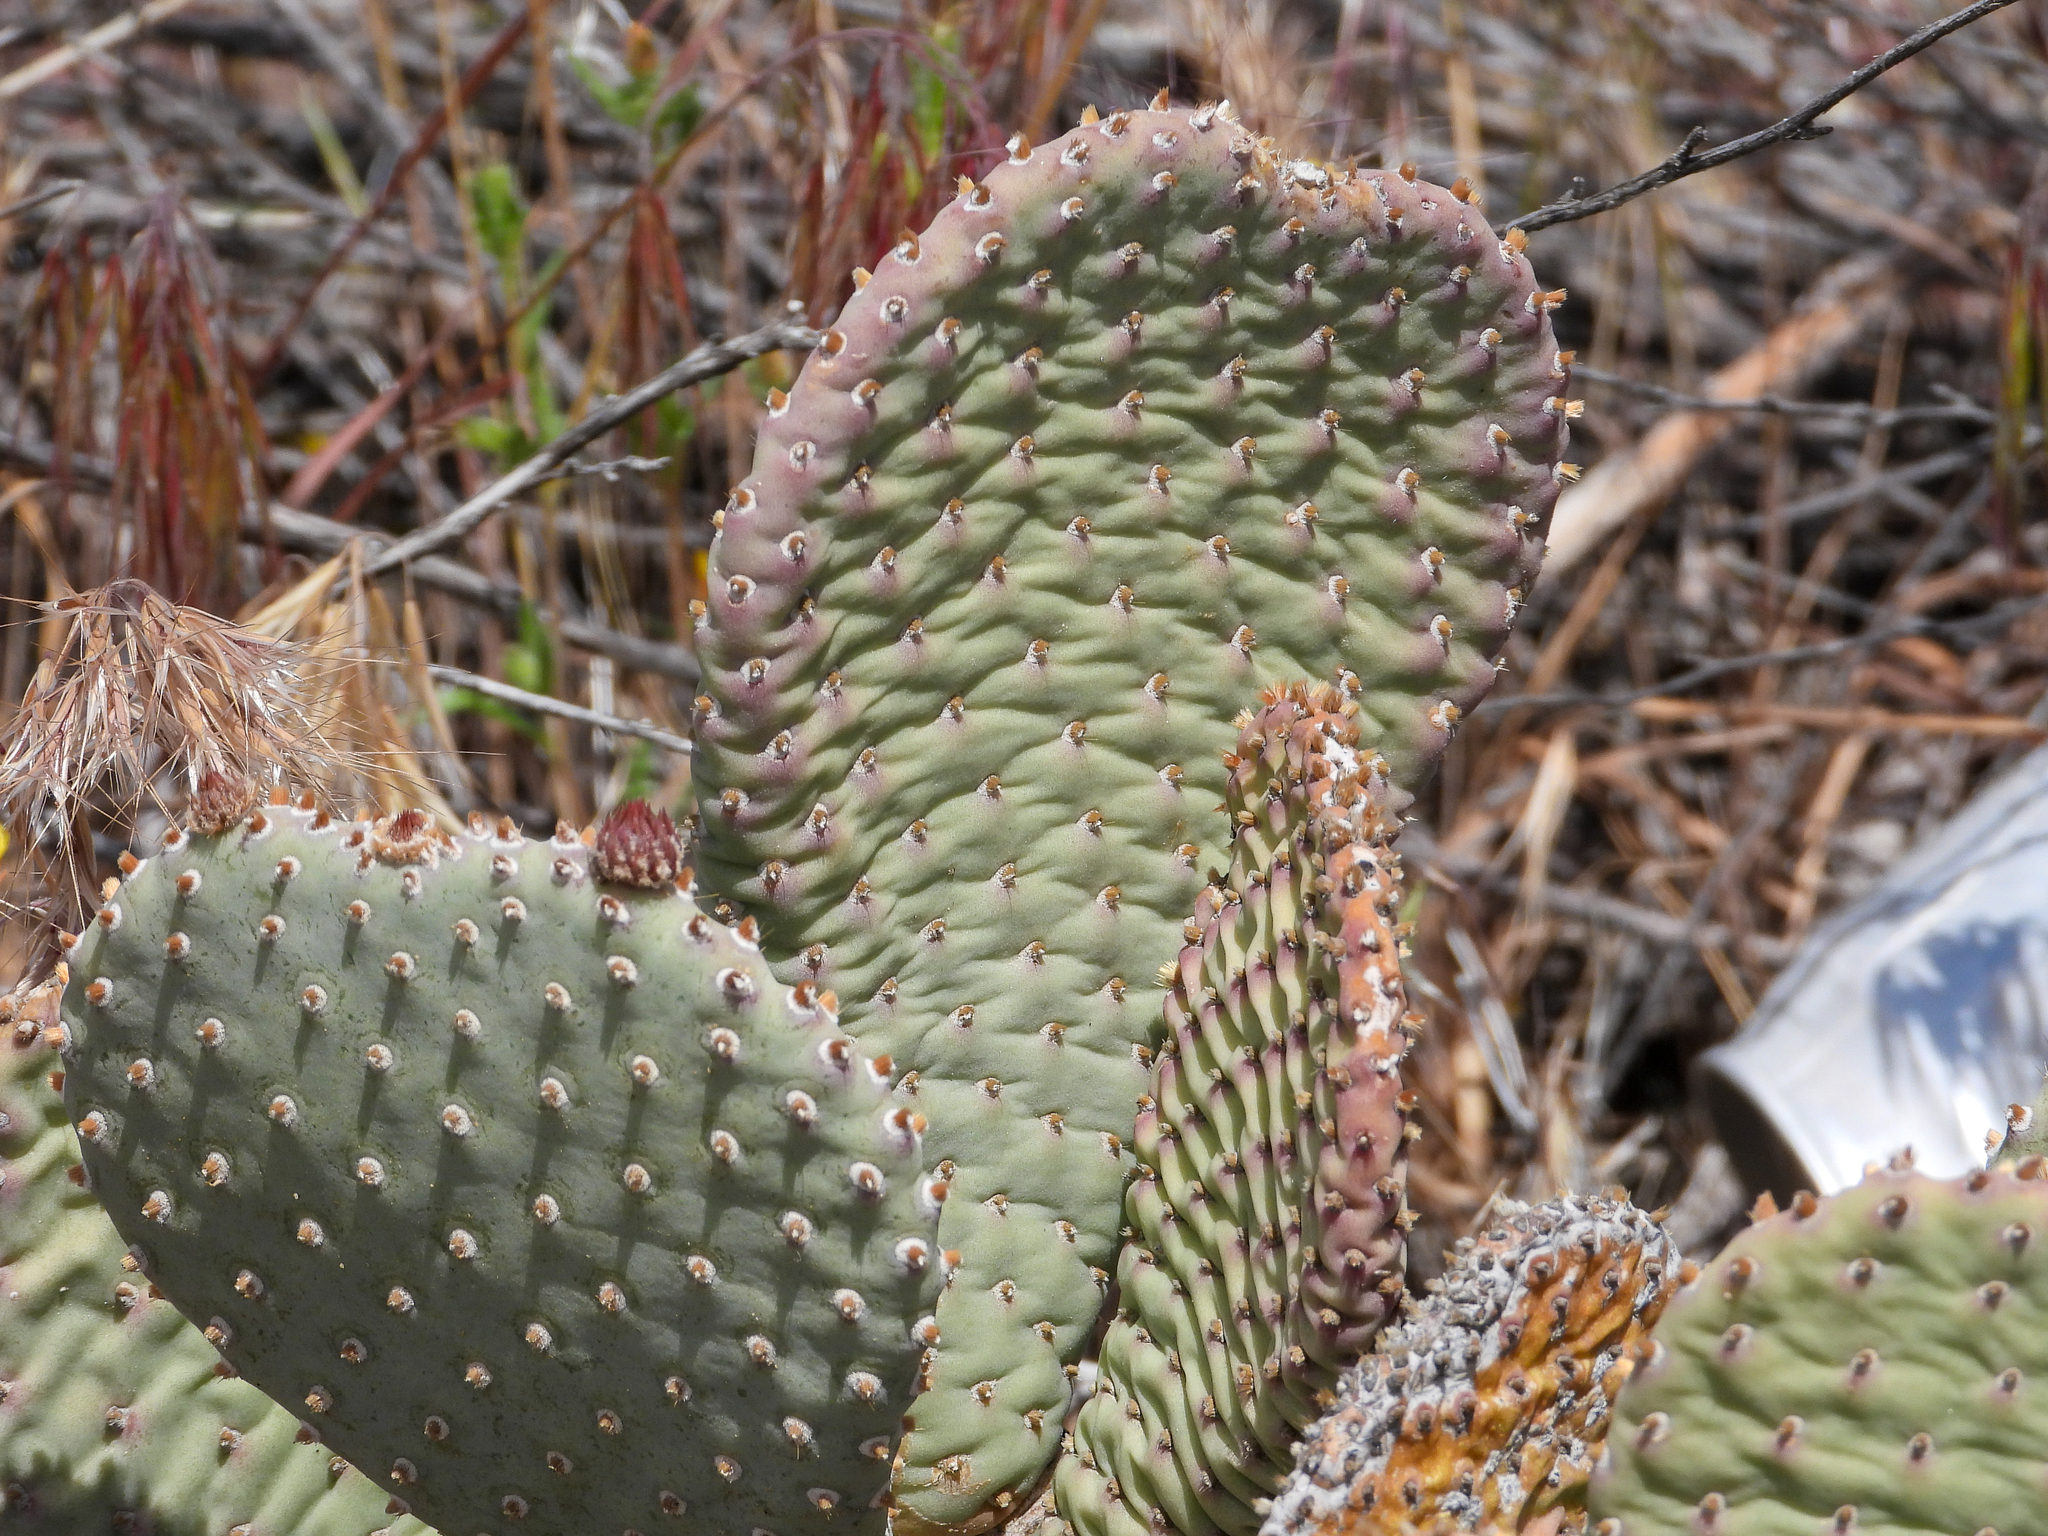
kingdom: Plantae
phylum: Tracheophyta
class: Magnoliopsida
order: Caryophyllales
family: Cactaceae
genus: Opuntia
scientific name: Opuntia basilaris
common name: Beavertail prickly-pear
